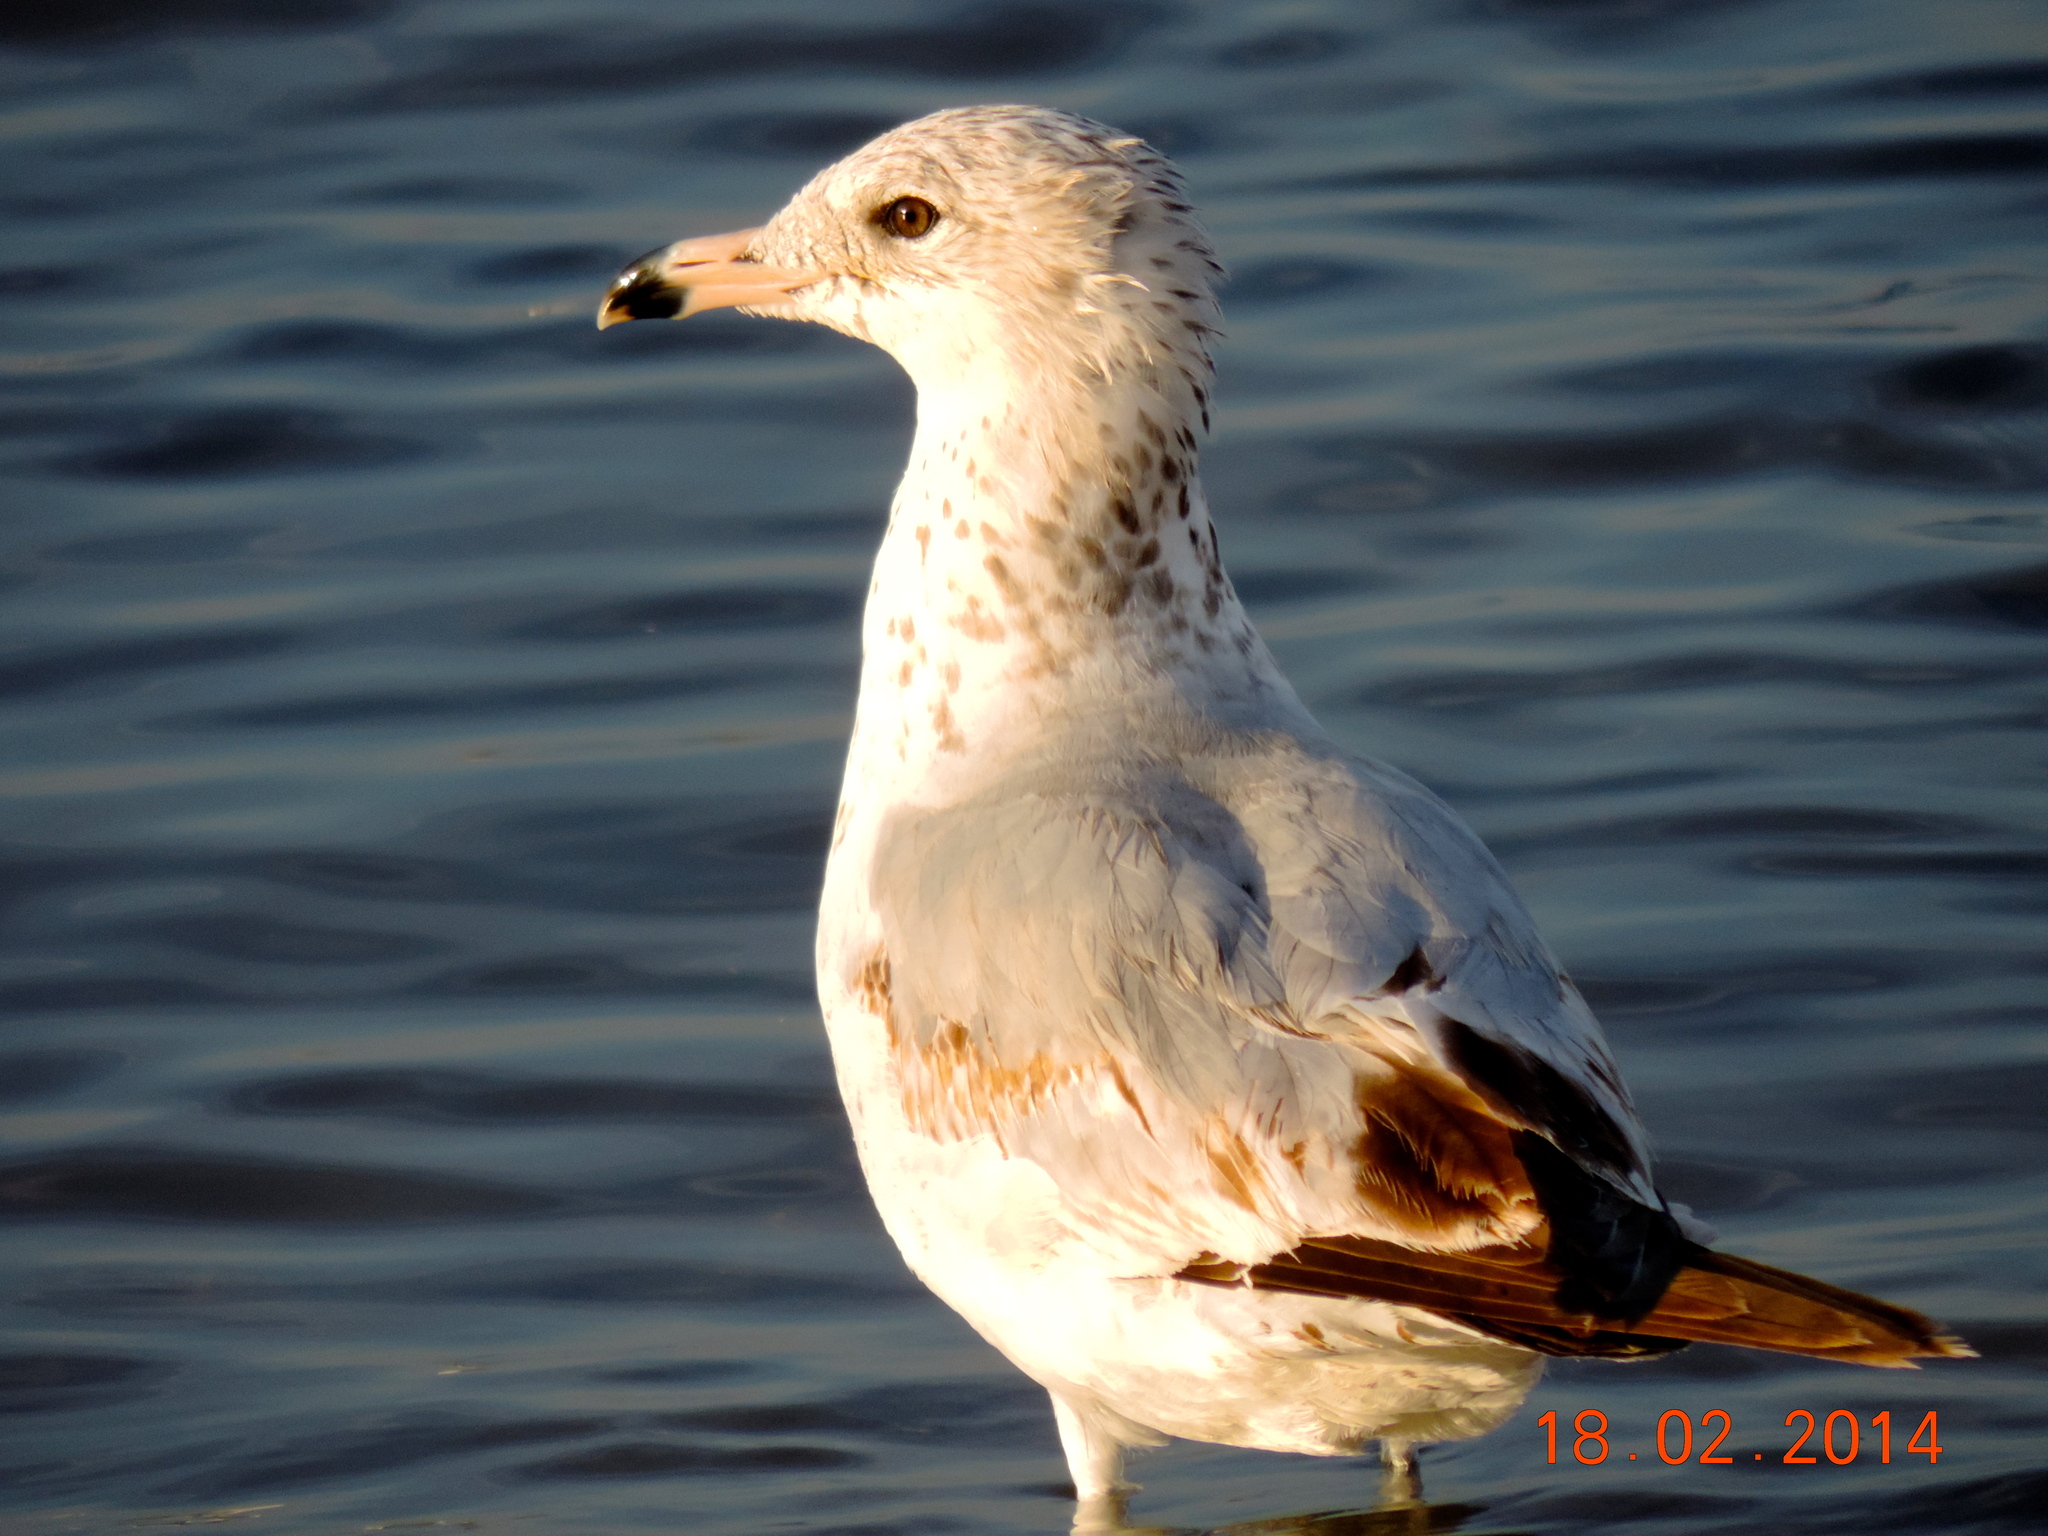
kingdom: Animalia
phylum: Chordata
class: Aves
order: Charadriiformes
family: Laridae
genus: Larus
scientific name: Larus californicus
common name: California gull
